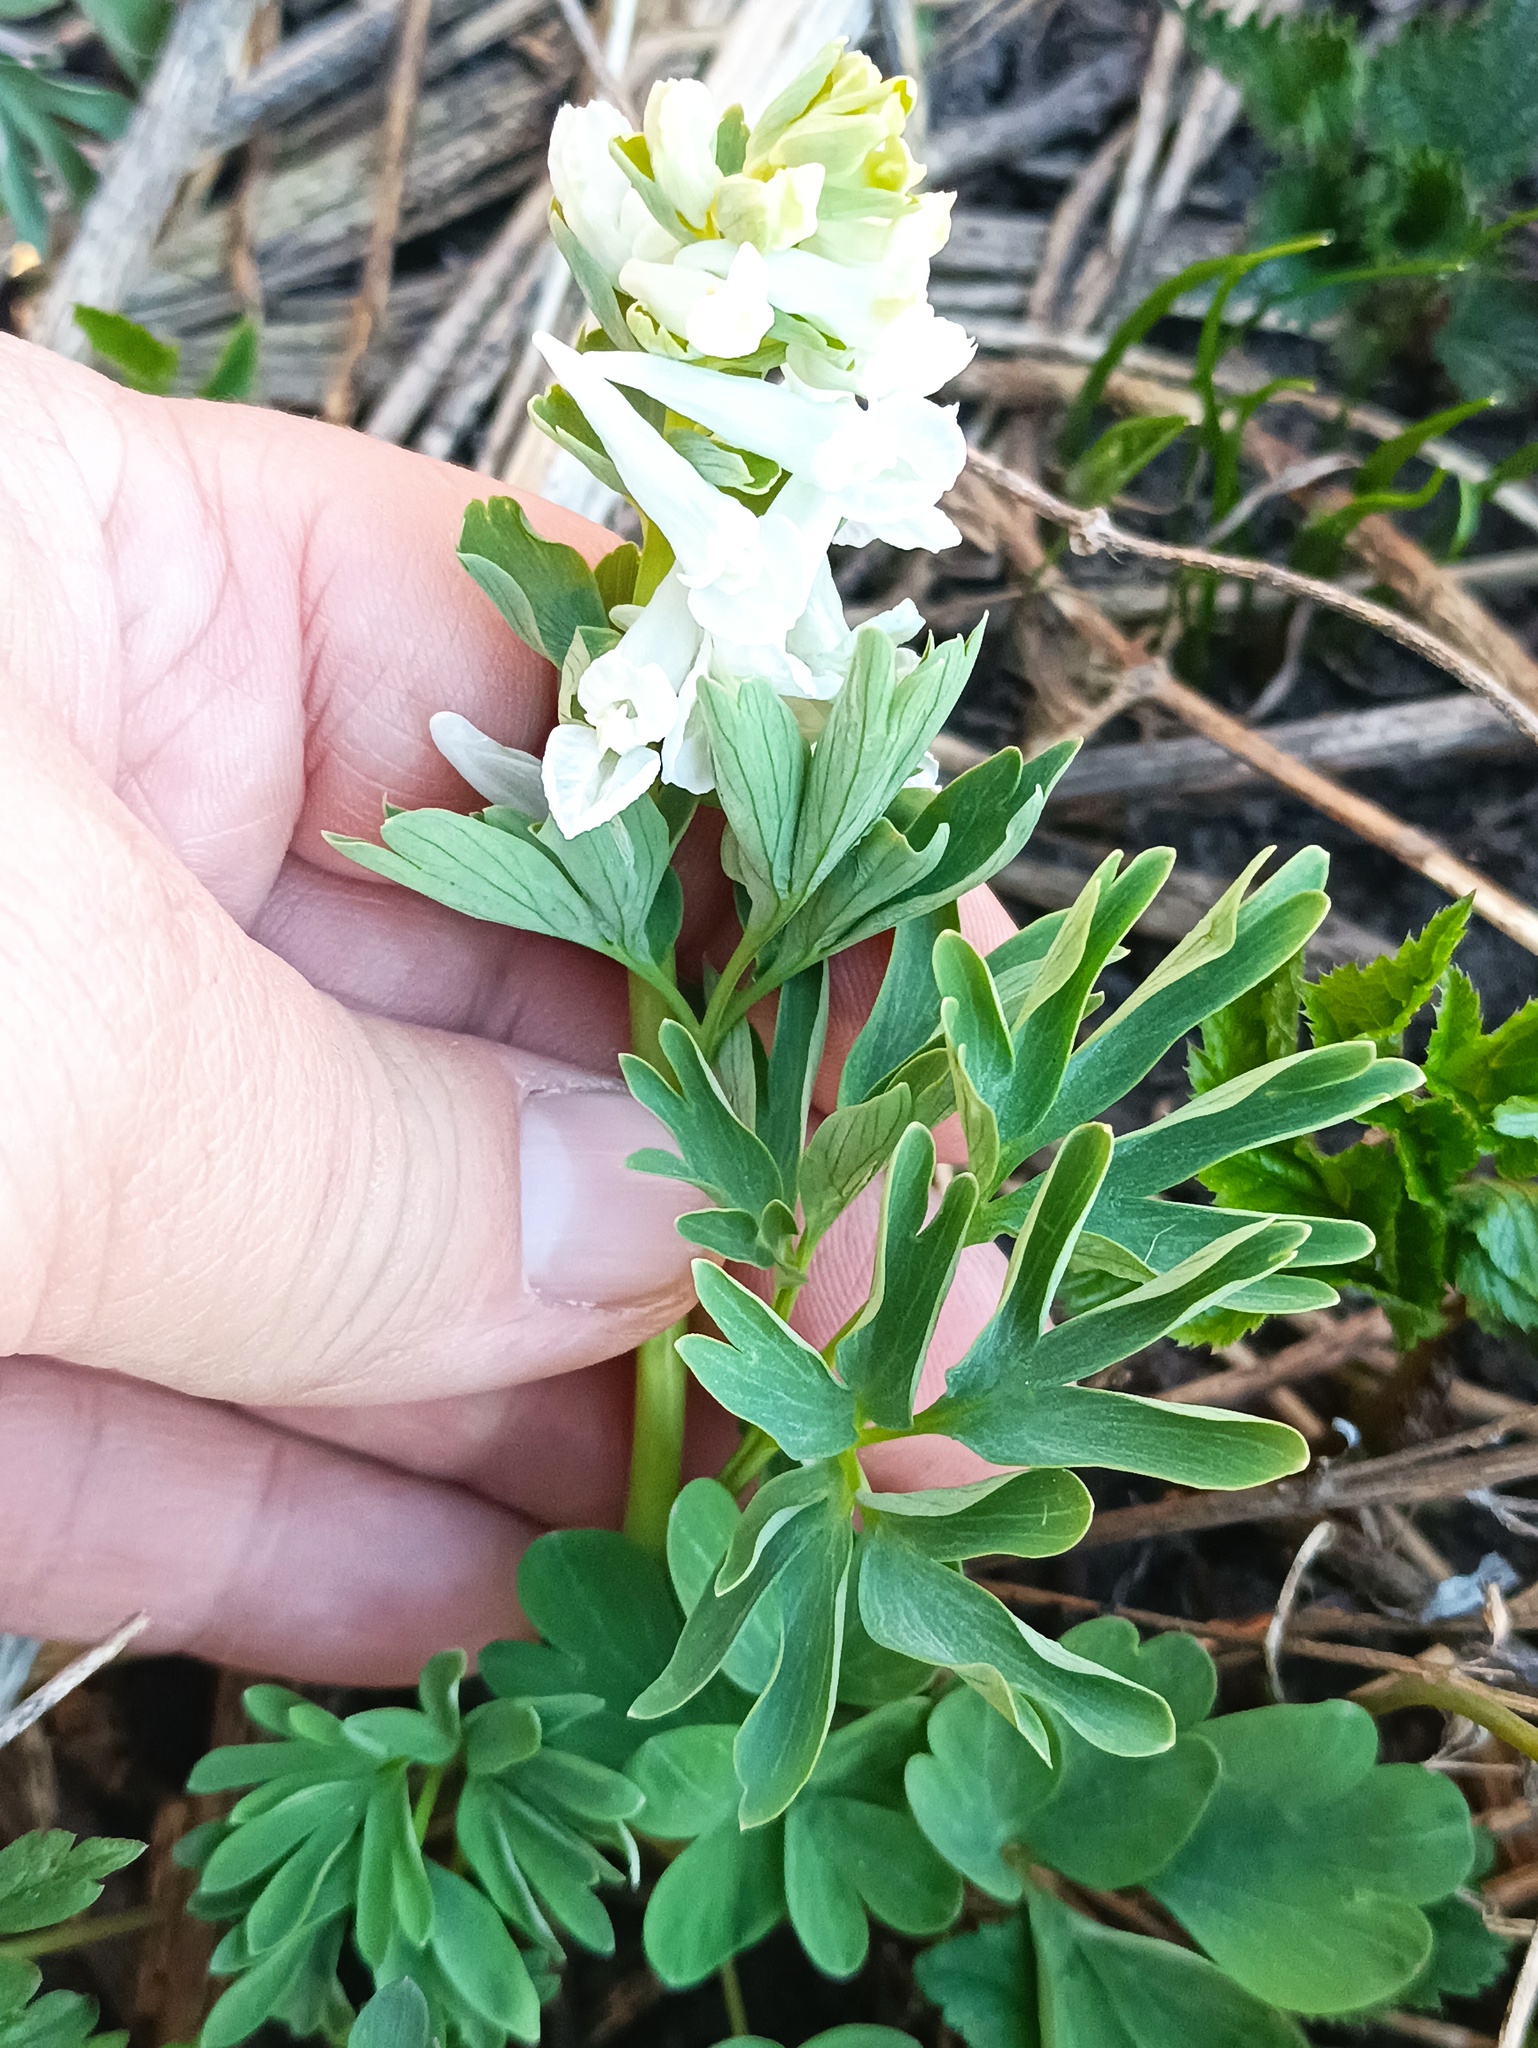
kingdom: Plantae
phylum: Tracheophyta
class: Magnoliopsida
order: Ranunculales
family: Papaveraceae
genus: Corydalis
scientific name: Corydalis solida
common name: Bird-in-a-bush
